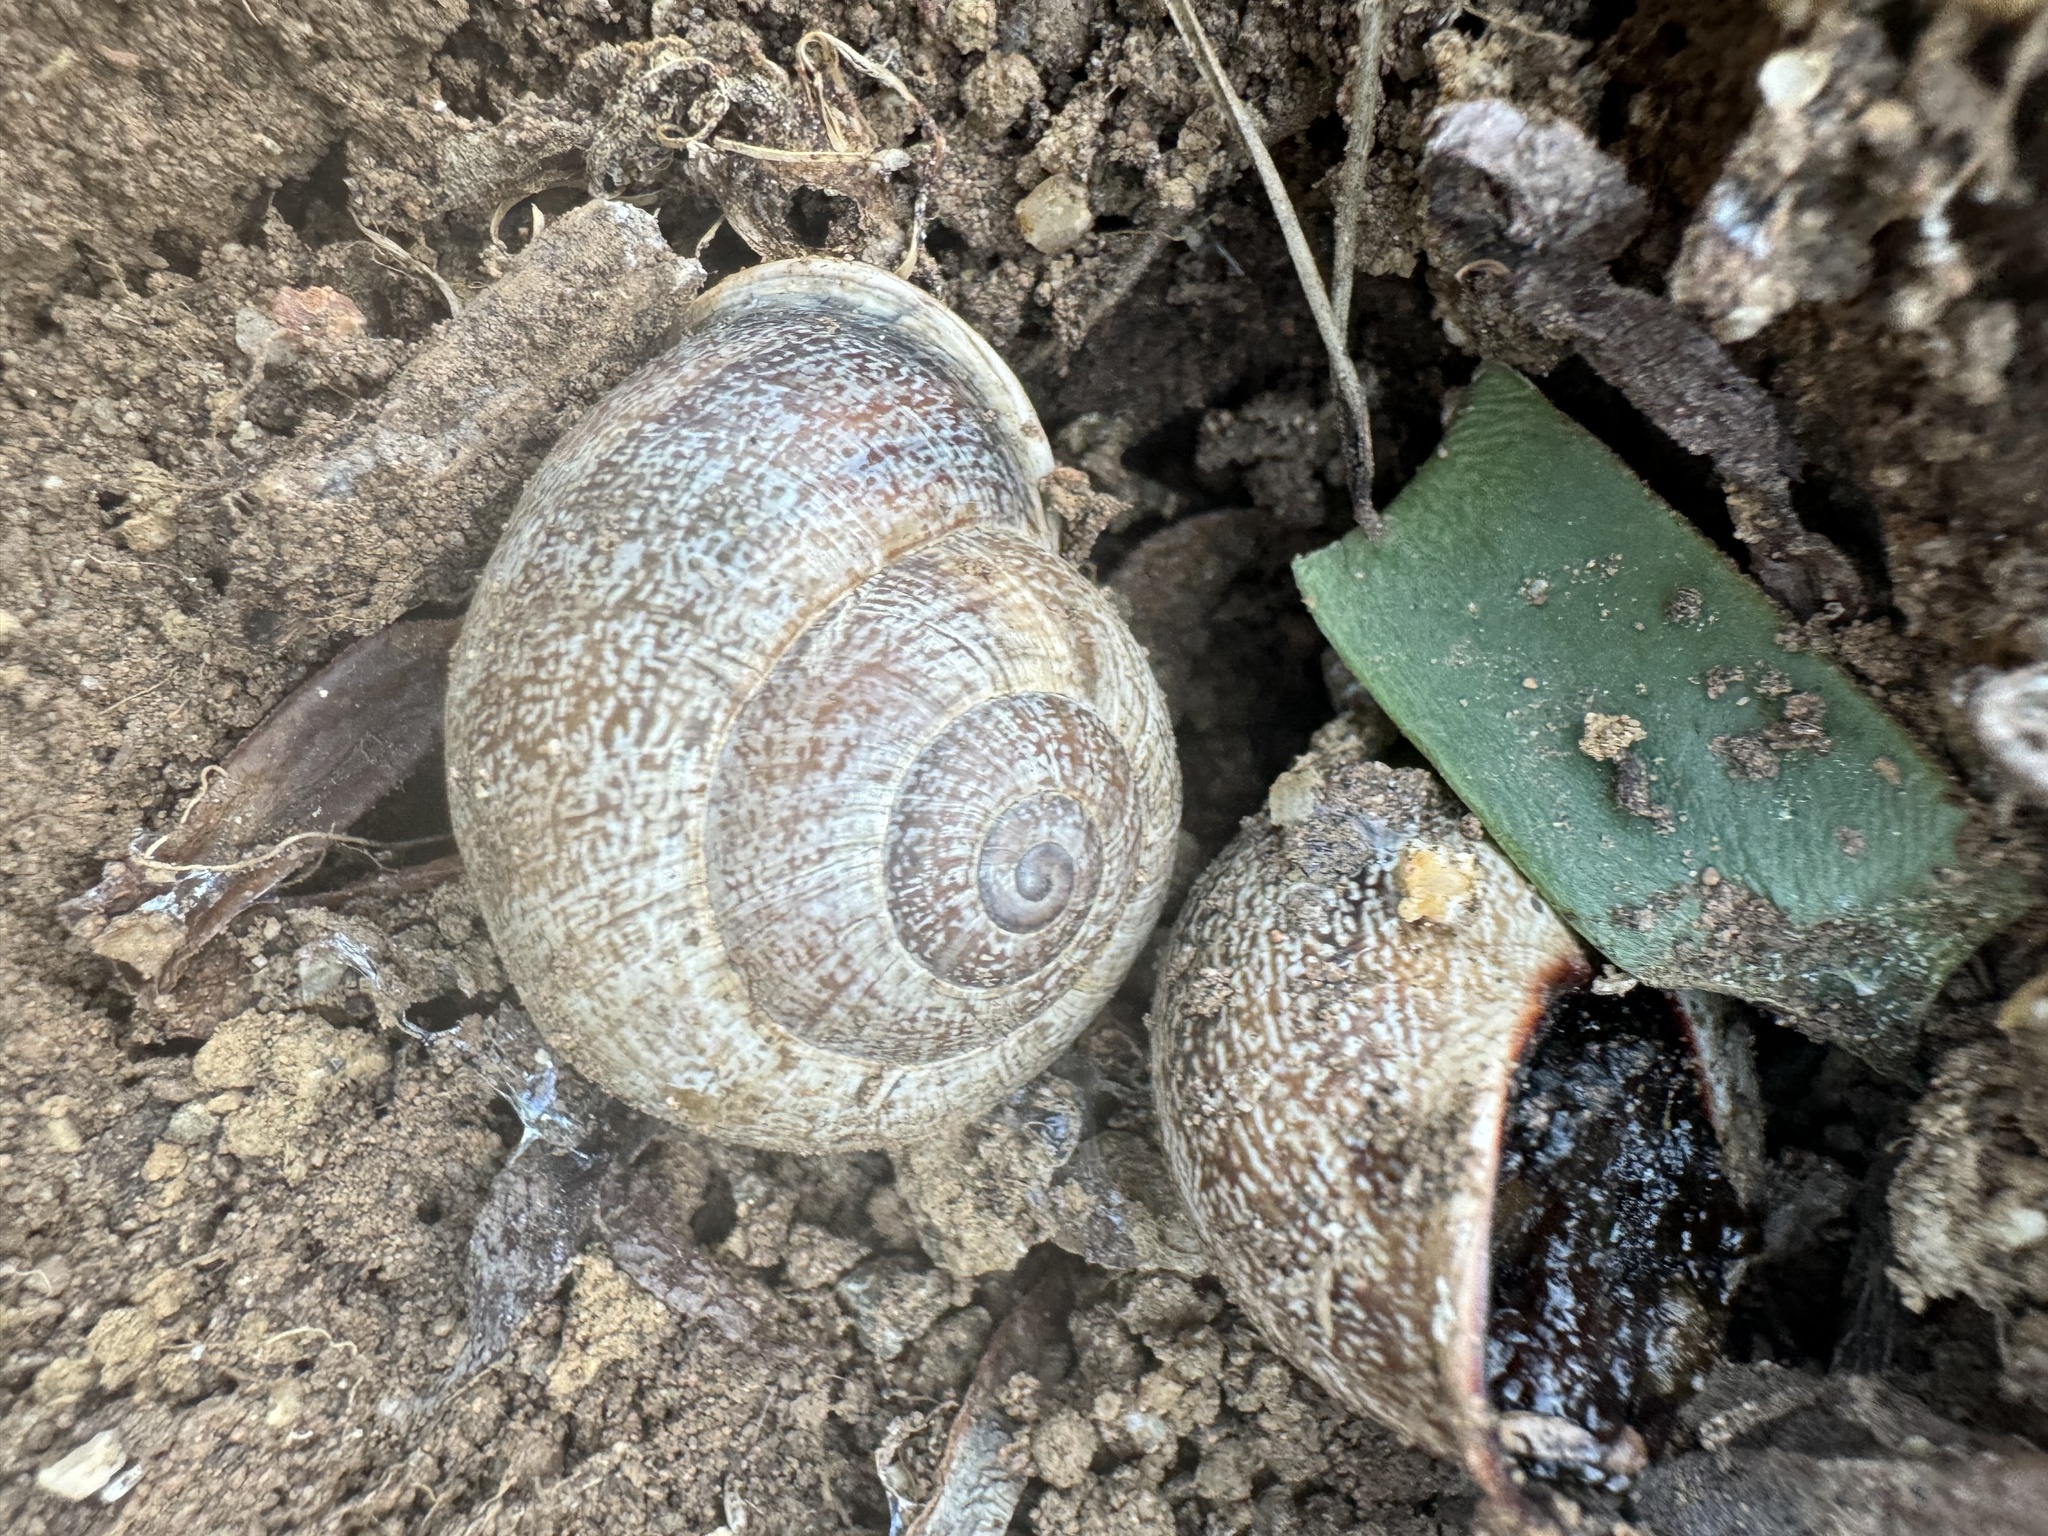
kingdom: Animalia
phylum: Mollusca
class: Gastropoda
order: Stylommatophora
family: Helicidae
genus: Otala
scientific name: Otala lactea
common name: Milk snail
